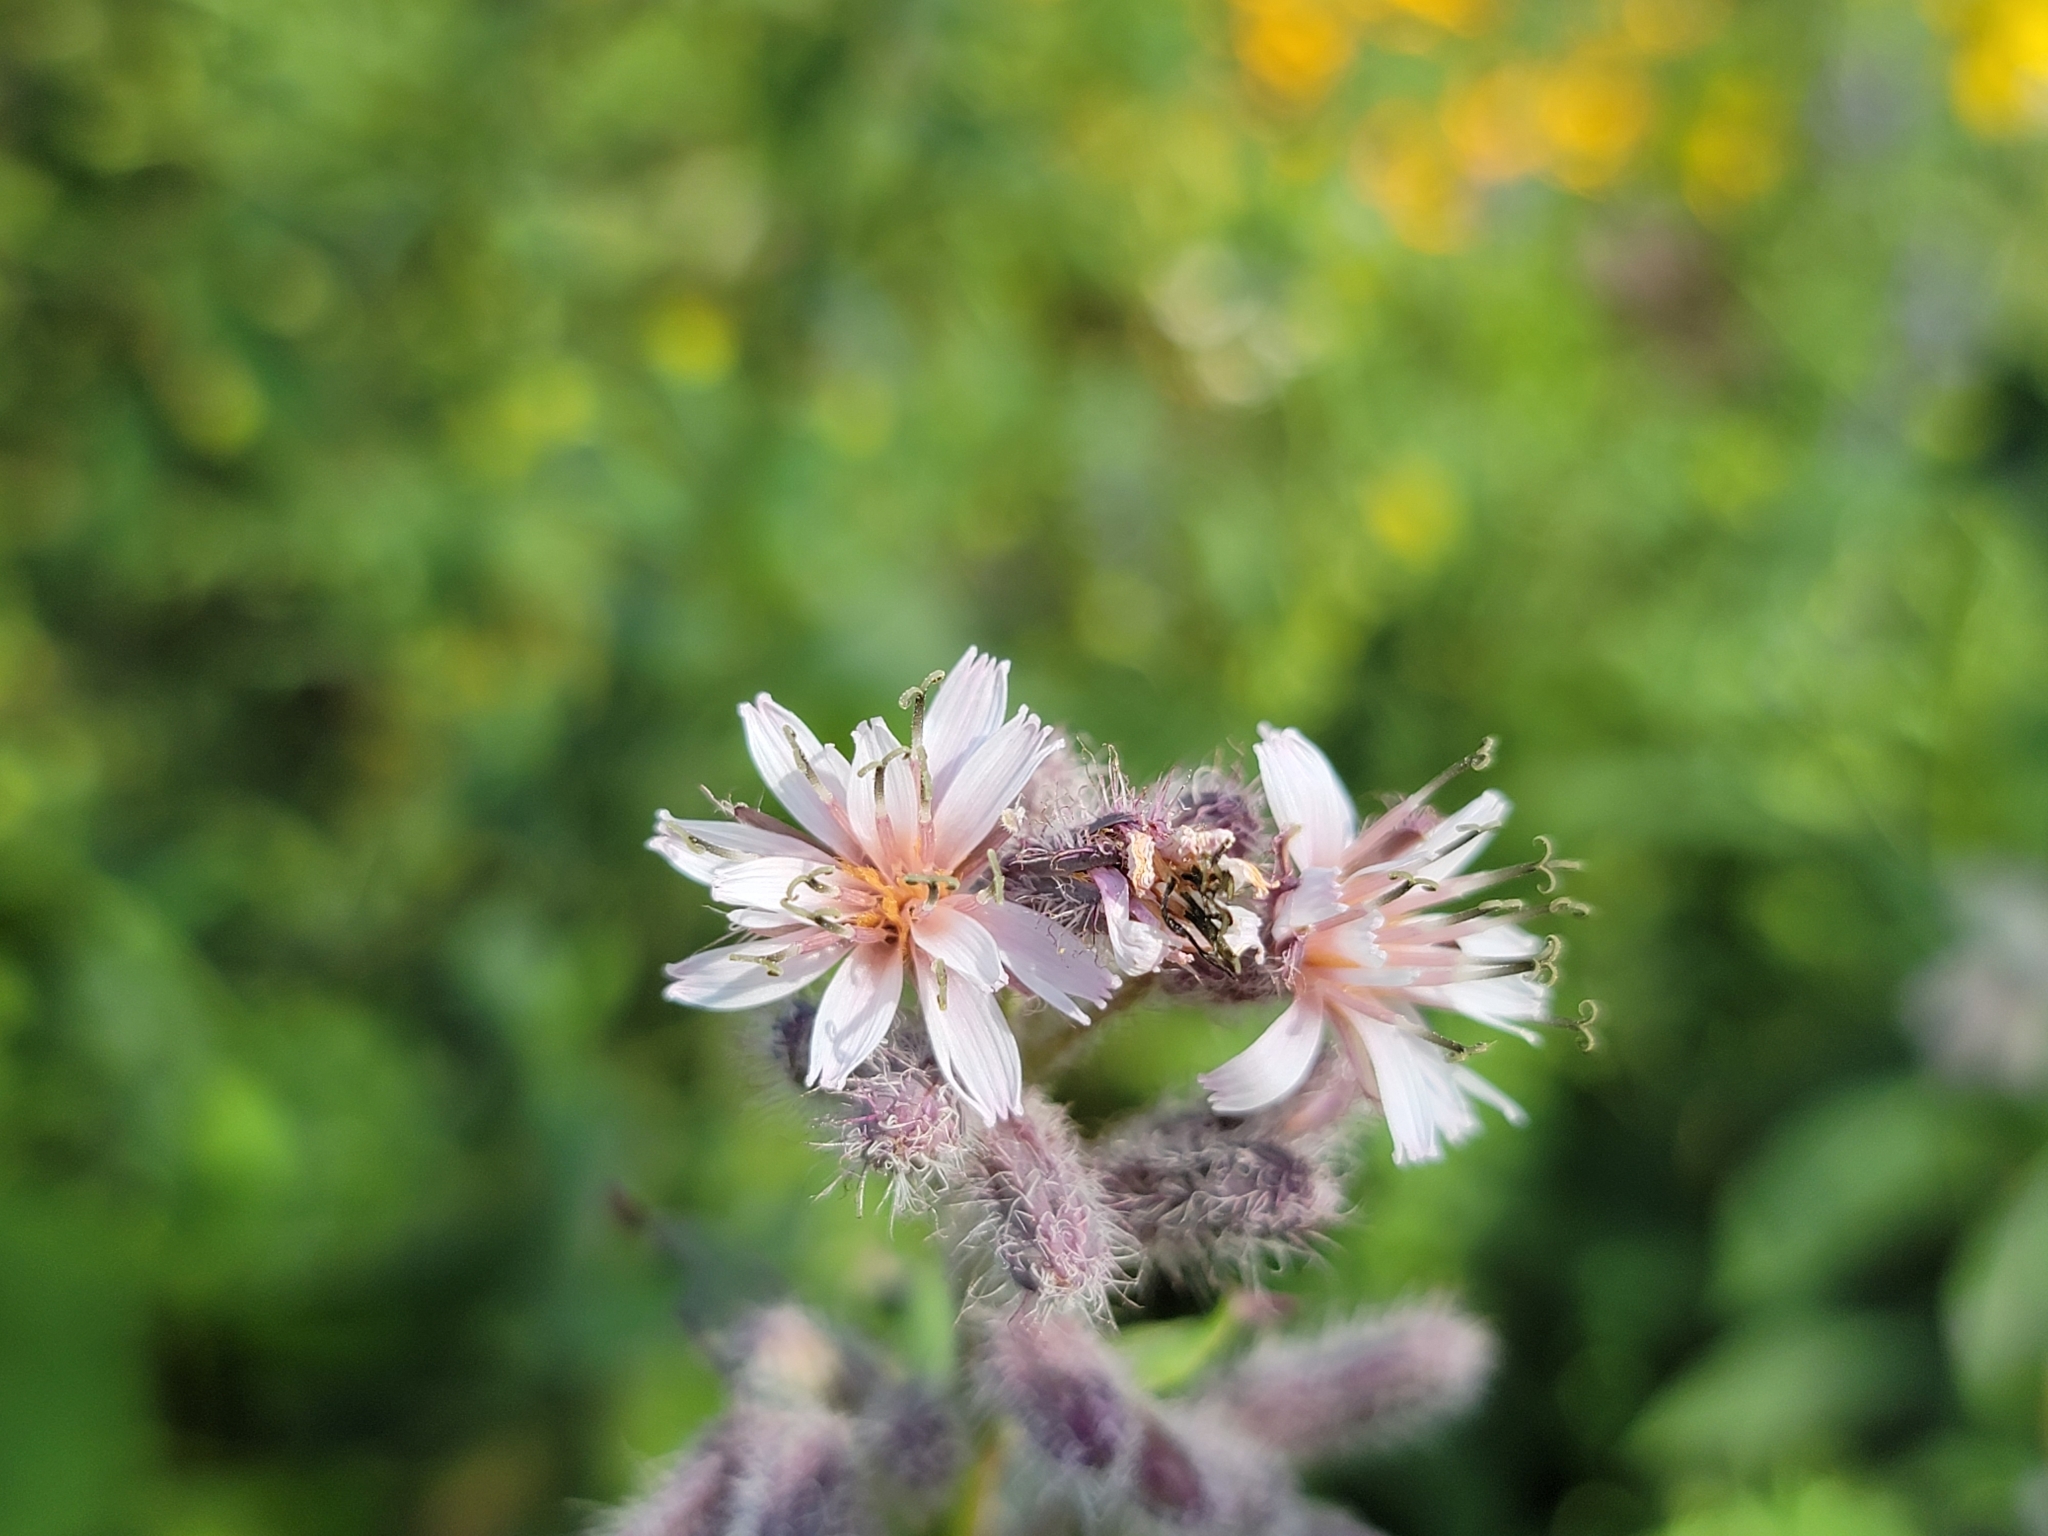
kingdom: Plantae
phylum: Tracheophyta
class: Magnoliopsida
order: Asterales
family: Asteraceae
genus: Nabalus
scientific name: Nabalus racemosus
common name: Glaucous white lettuce
